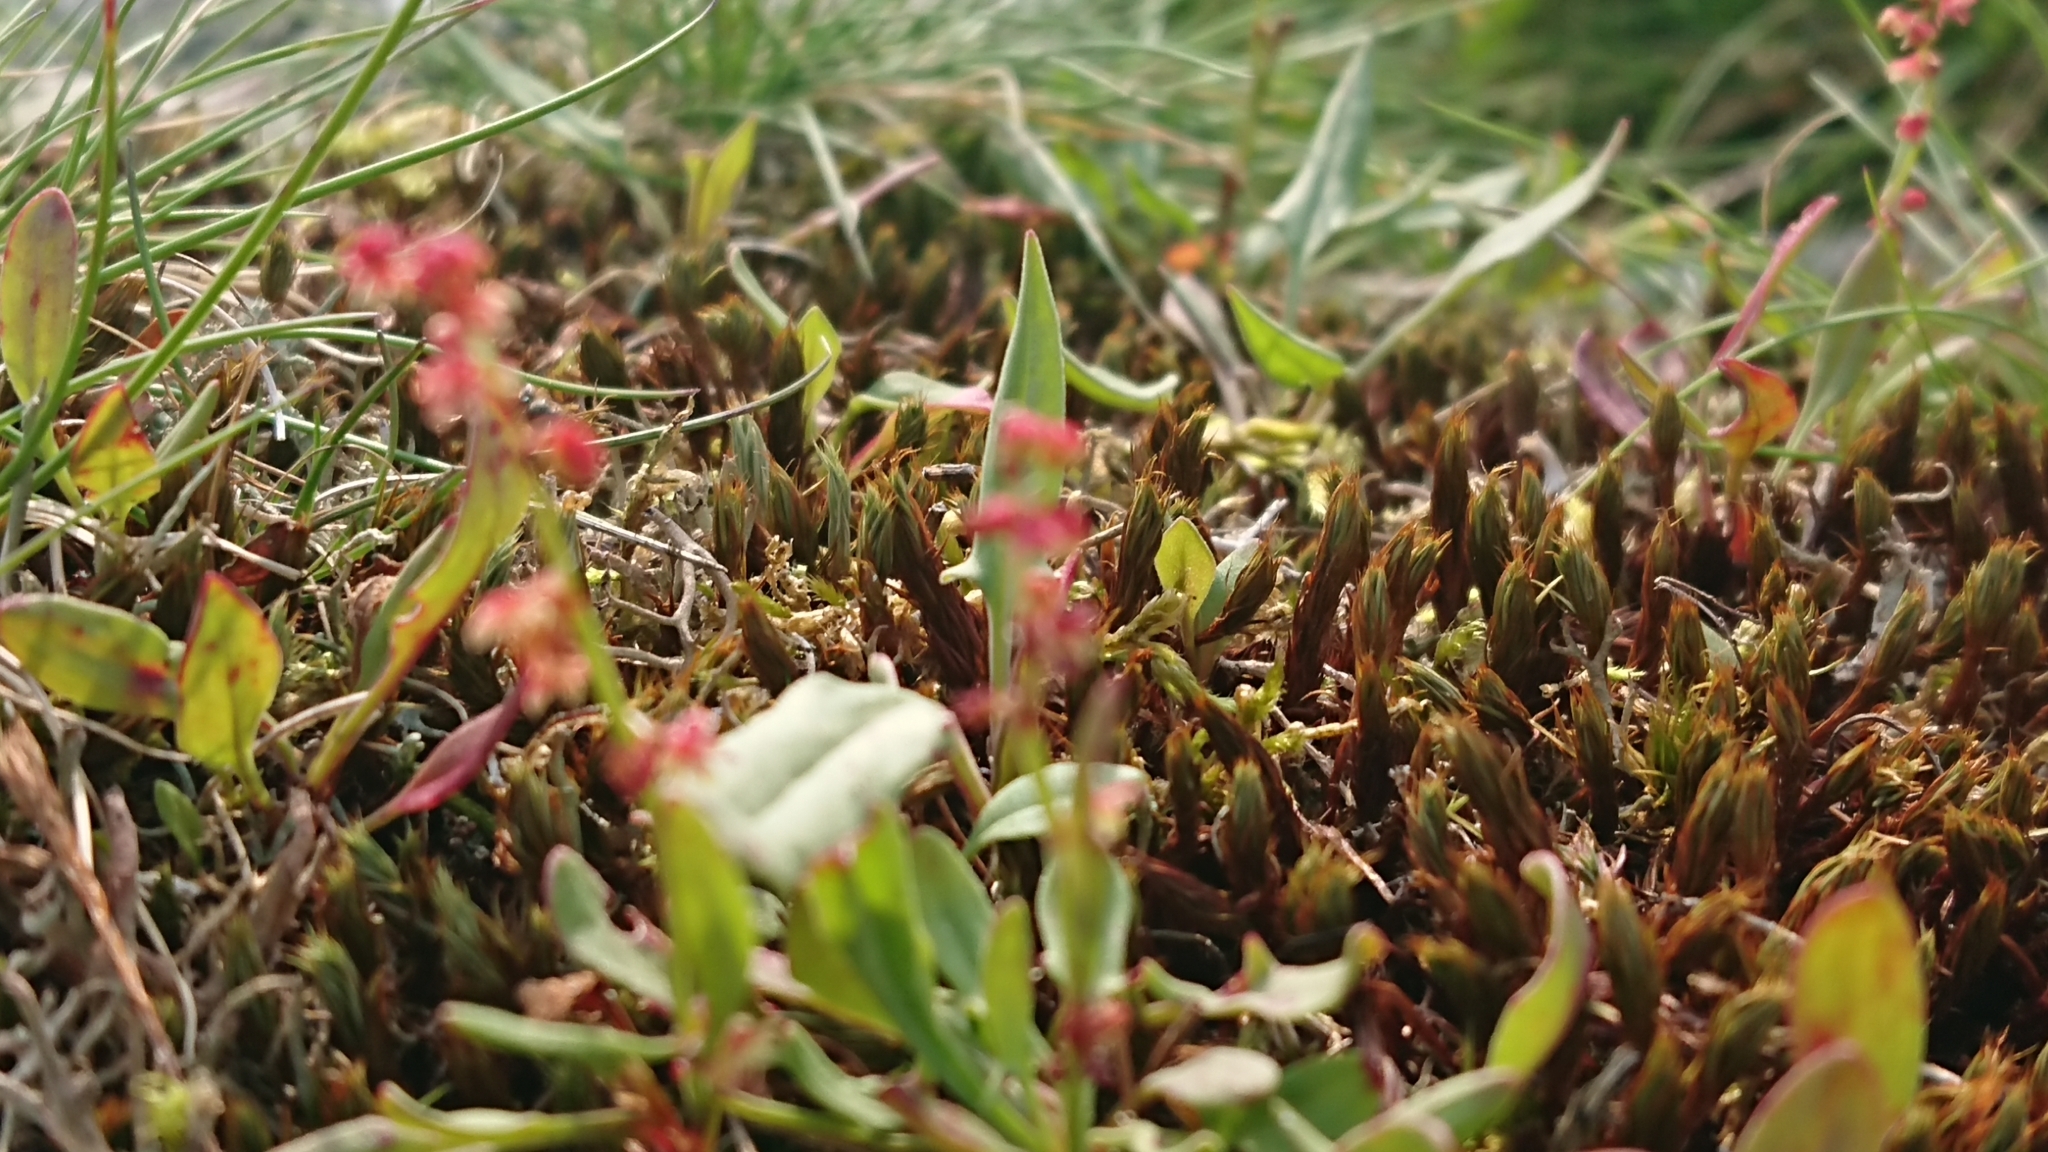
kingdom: Plantae
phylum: Tracheophyta
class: Magnoliopsida
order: Caryophyllales
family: Polygonaceae
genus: Rumex
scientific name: Rumex acetosella
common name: Common sheep sorrel
